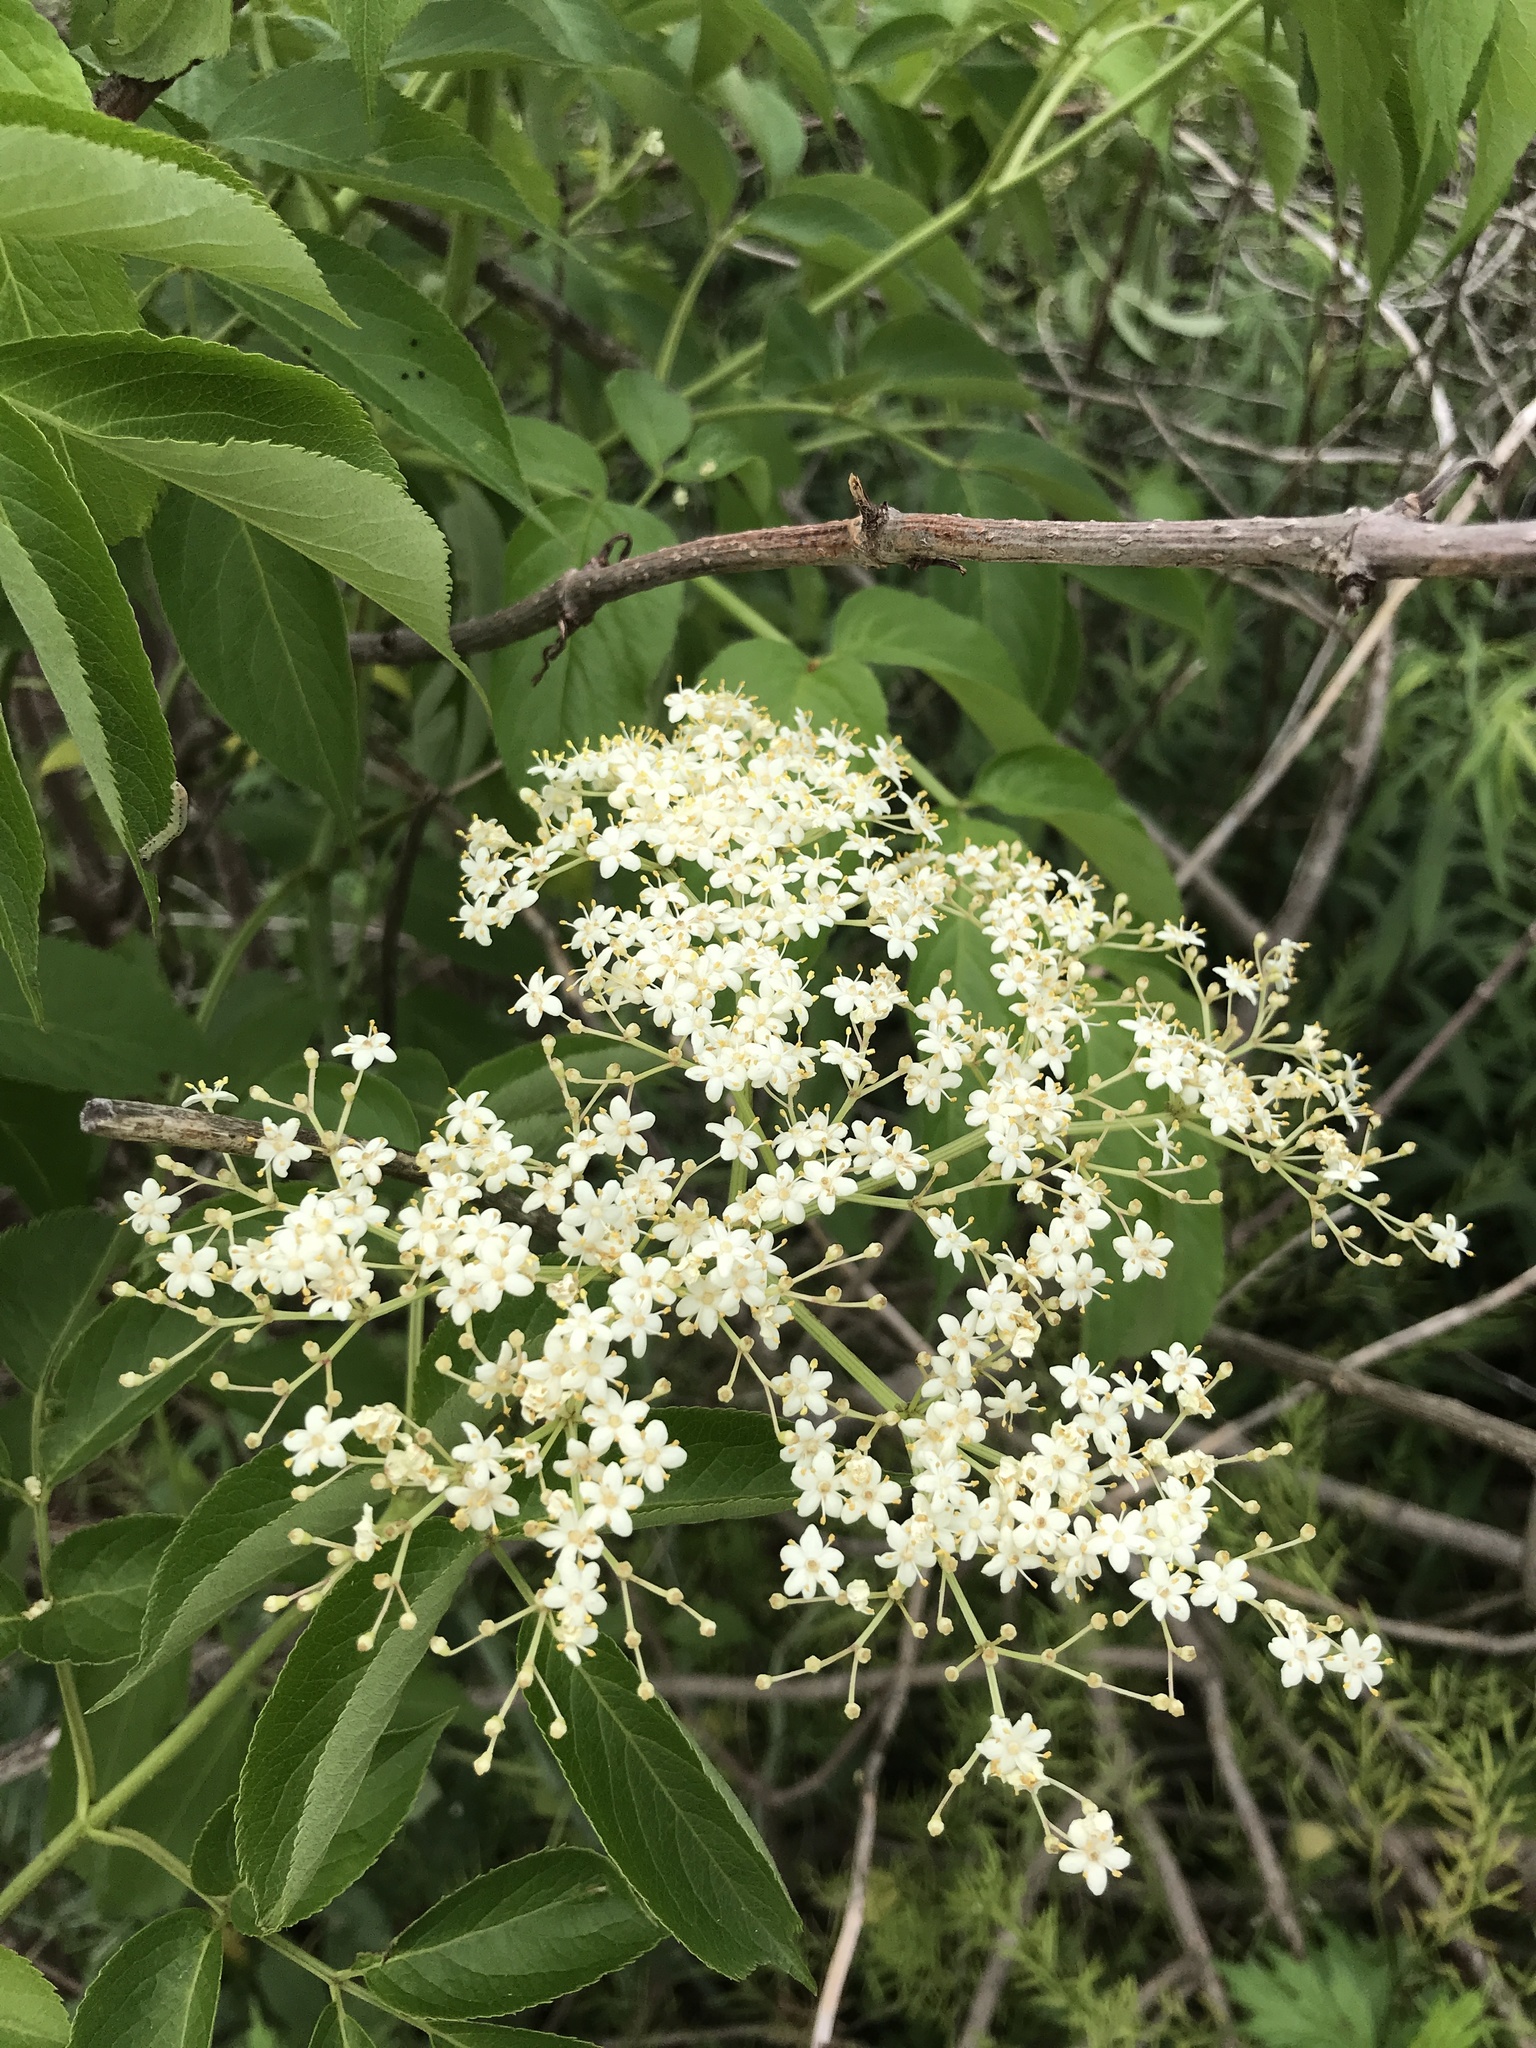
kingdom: Plantae
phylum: Tracheophyta
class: Magnoliopsida
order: Dipsacales
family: Viburnaceae
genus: Sambucus
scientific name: Sambucus canadensis
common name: American elder
